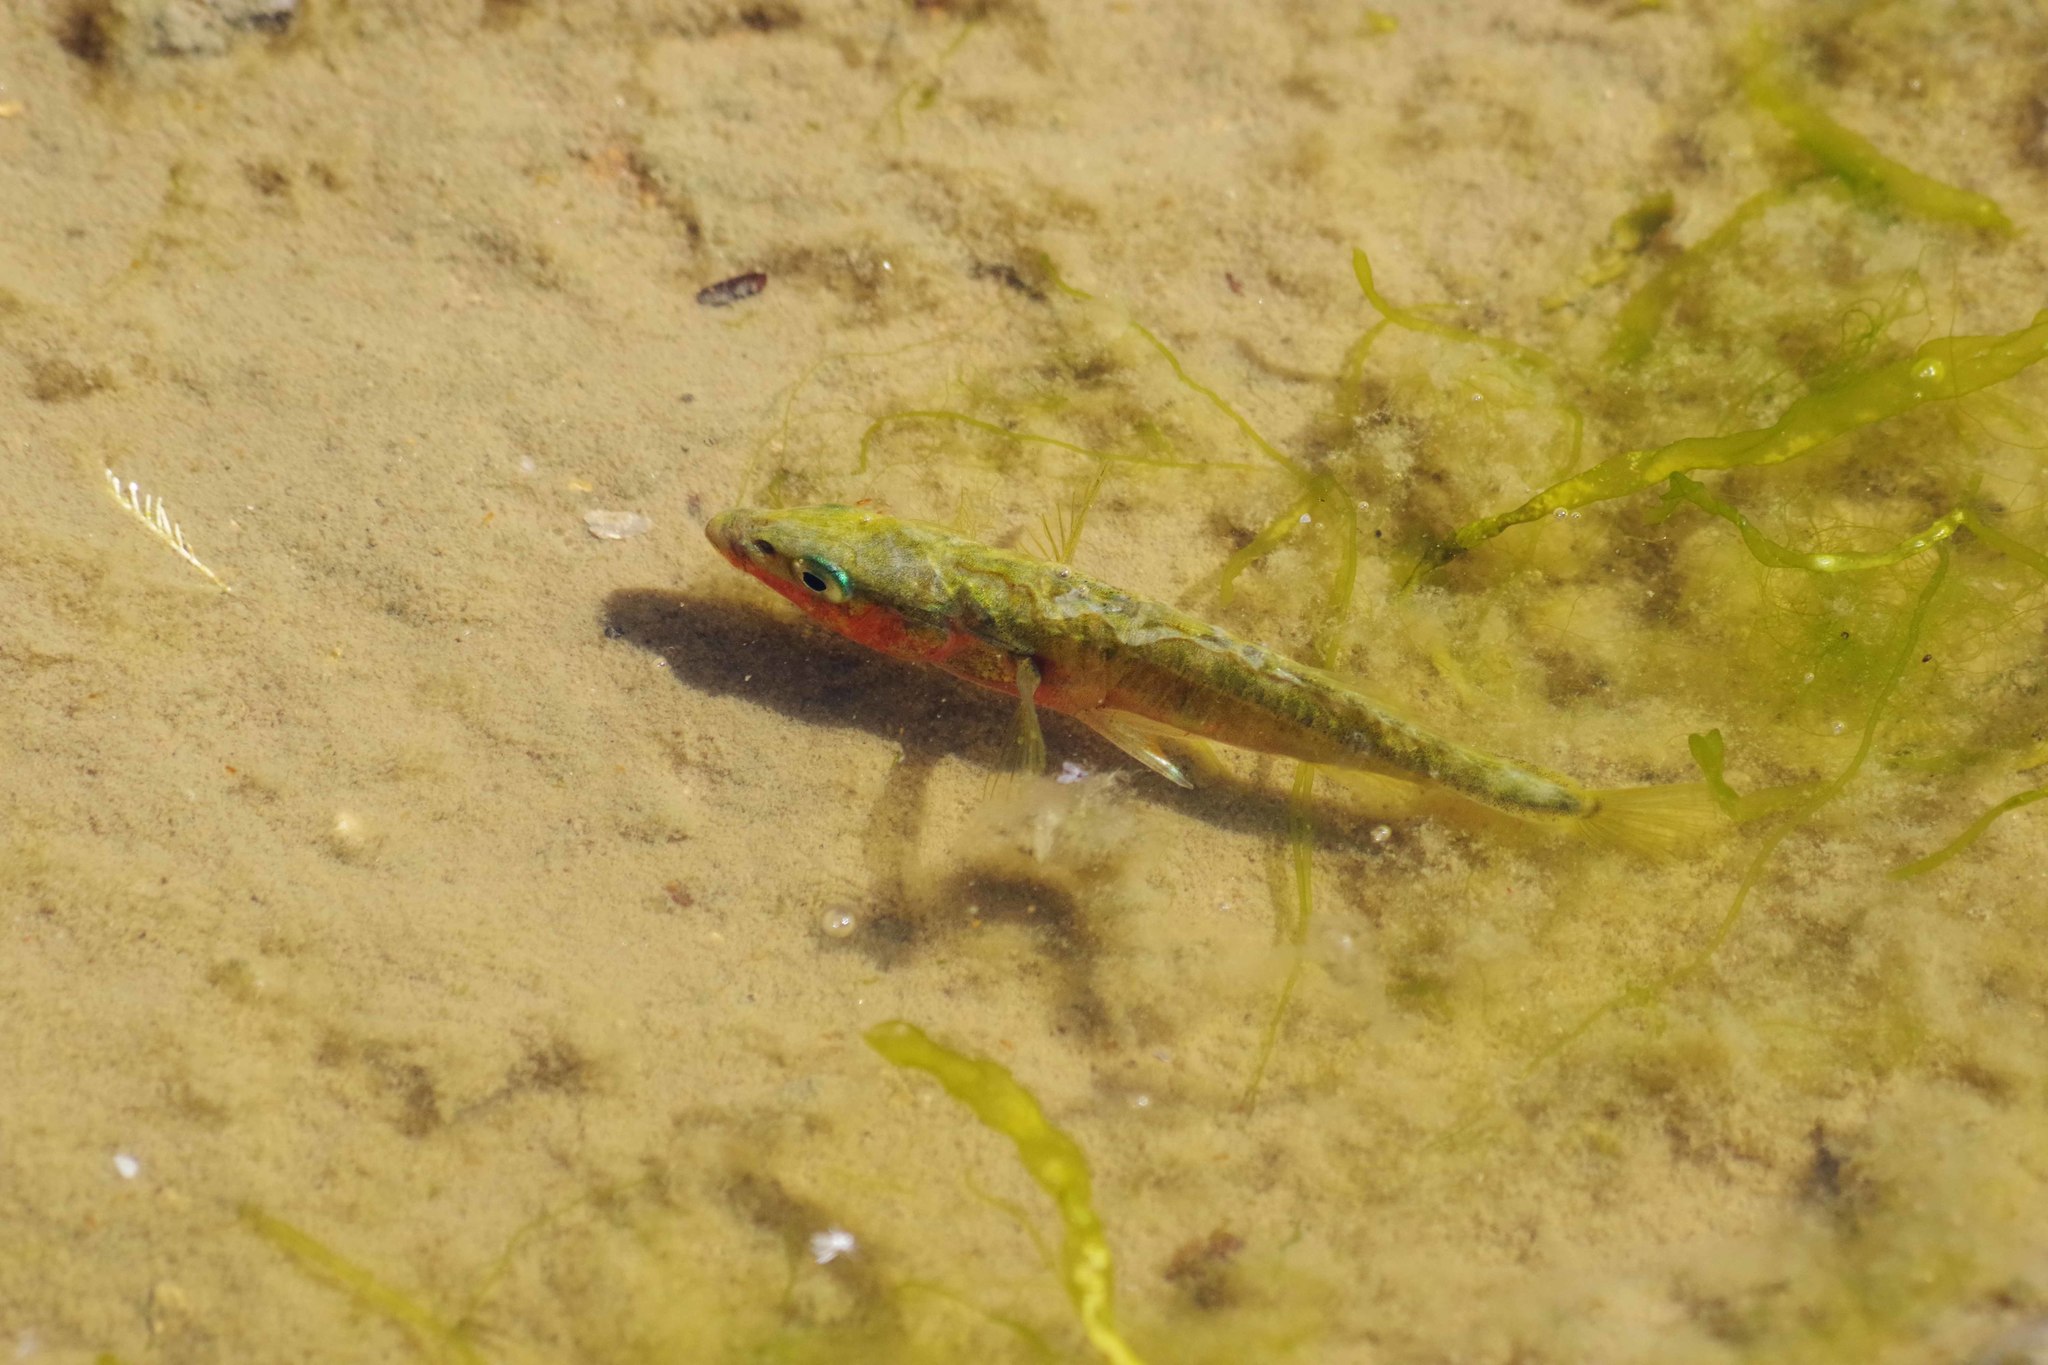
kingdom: Animalia
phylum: Chordata
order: Gasterosteiformes
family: Gasterosteidae
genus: Gasterosteus
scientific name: Gasterosteus aculeatus
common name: Three-spined stickleback
